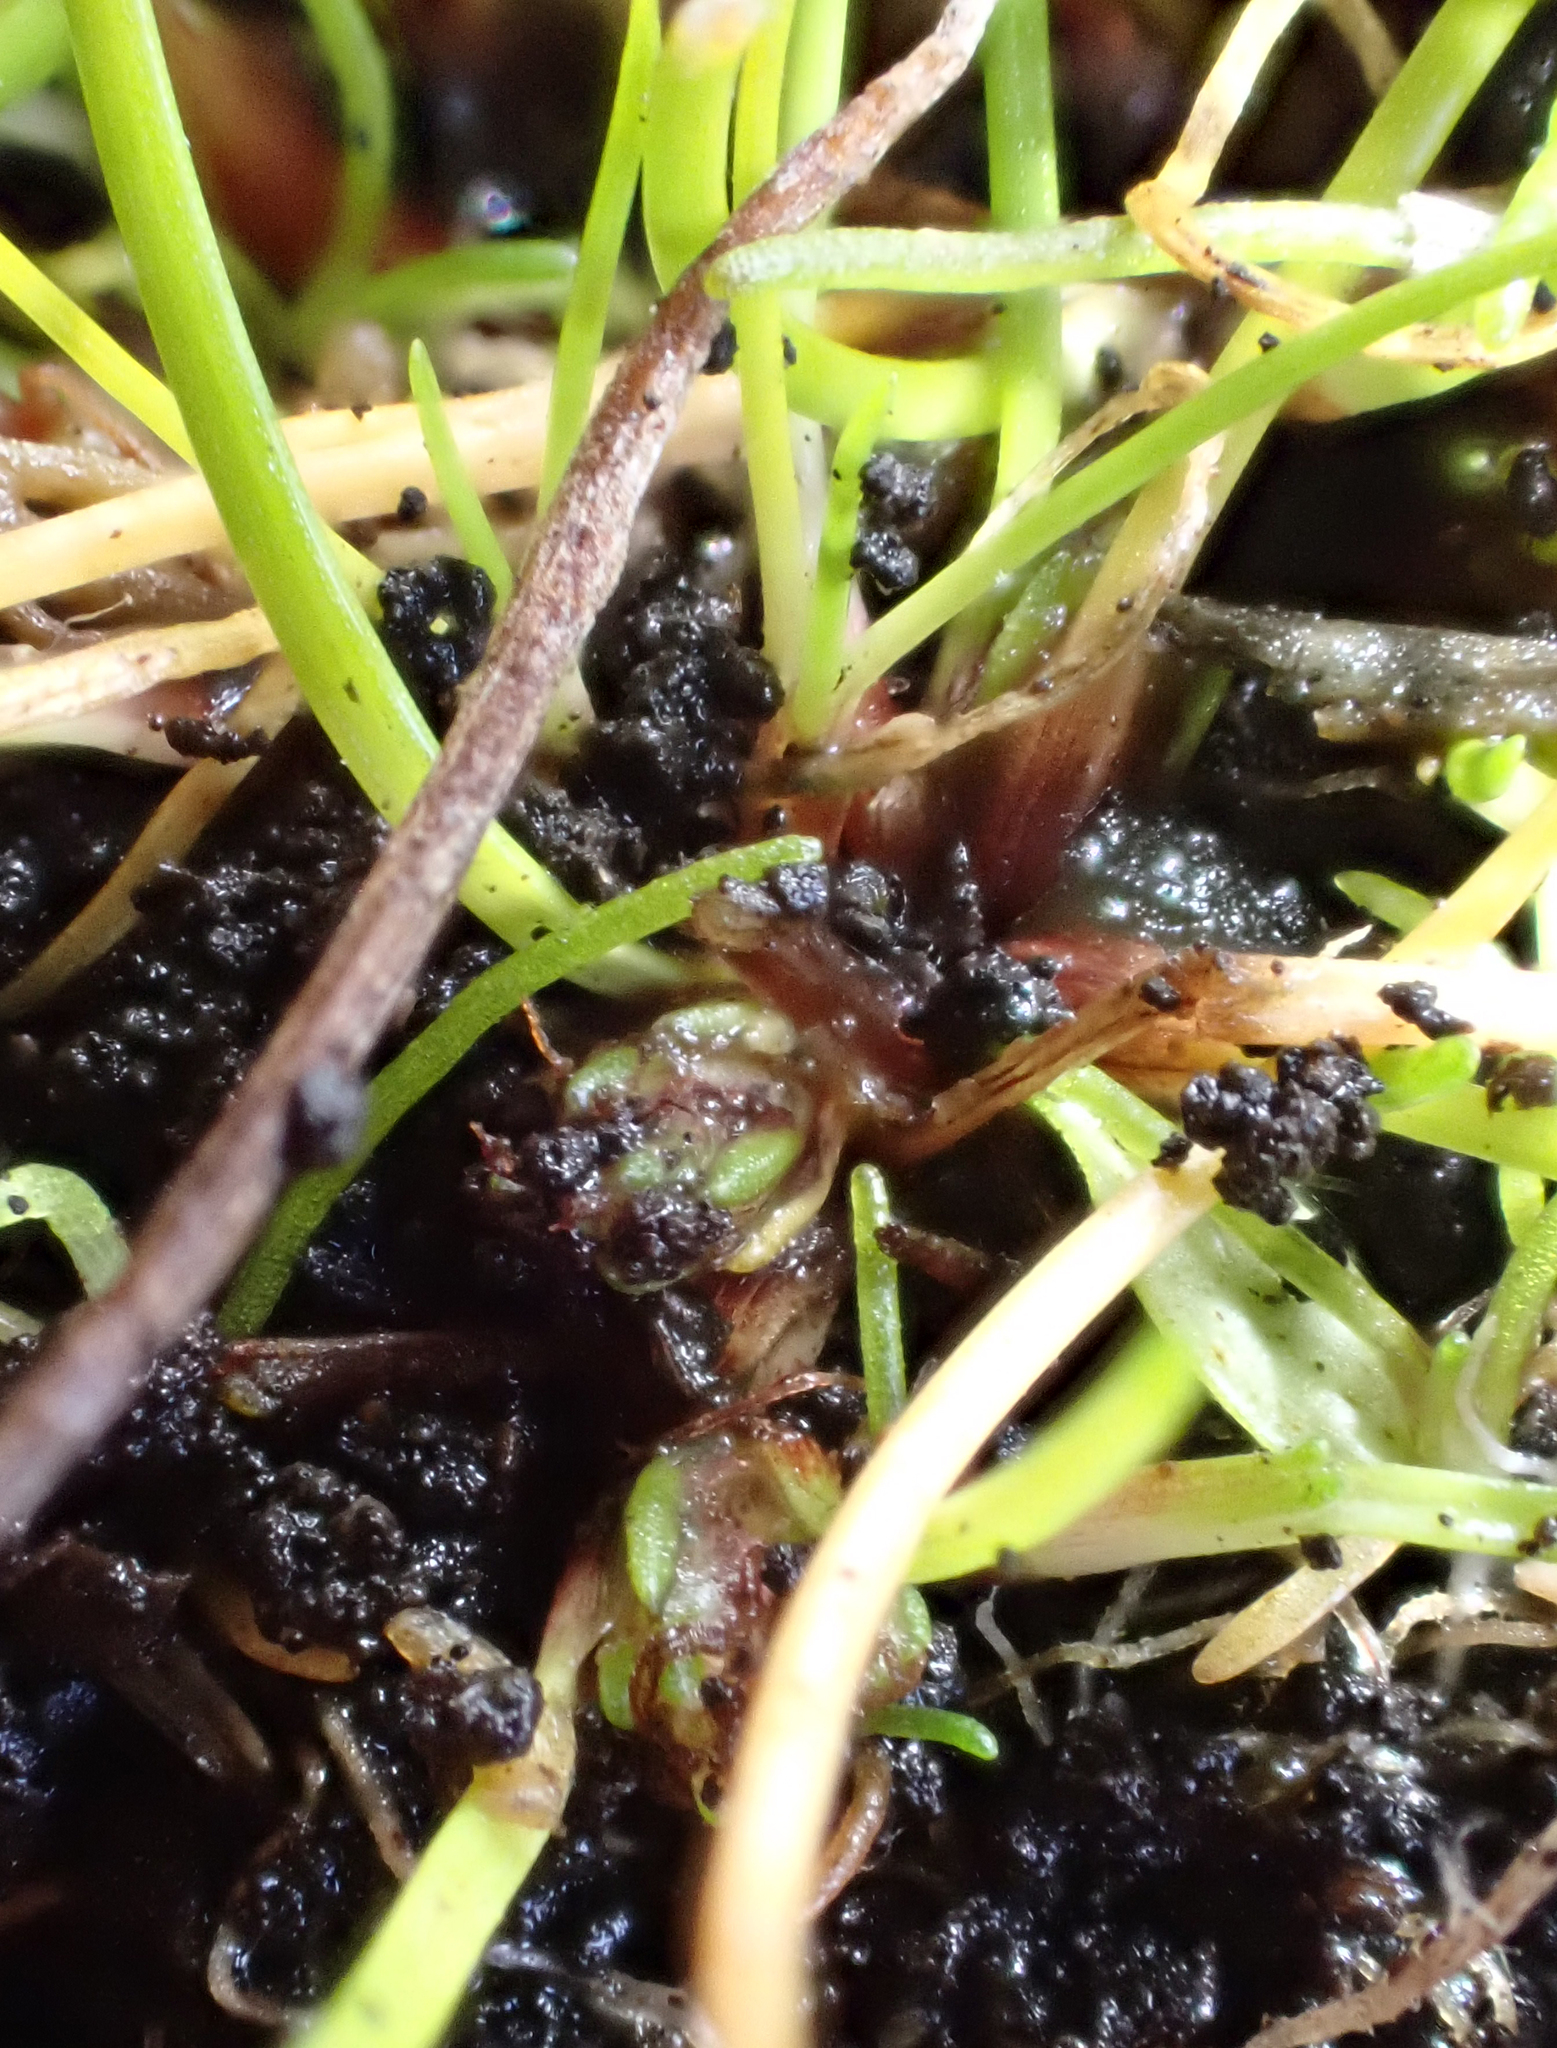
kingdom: Plantae
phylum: Tracheophyta
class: Liliopsida
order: Poales
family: Cyperaceae
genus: Isolepis
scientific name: Isolepis basilaris
